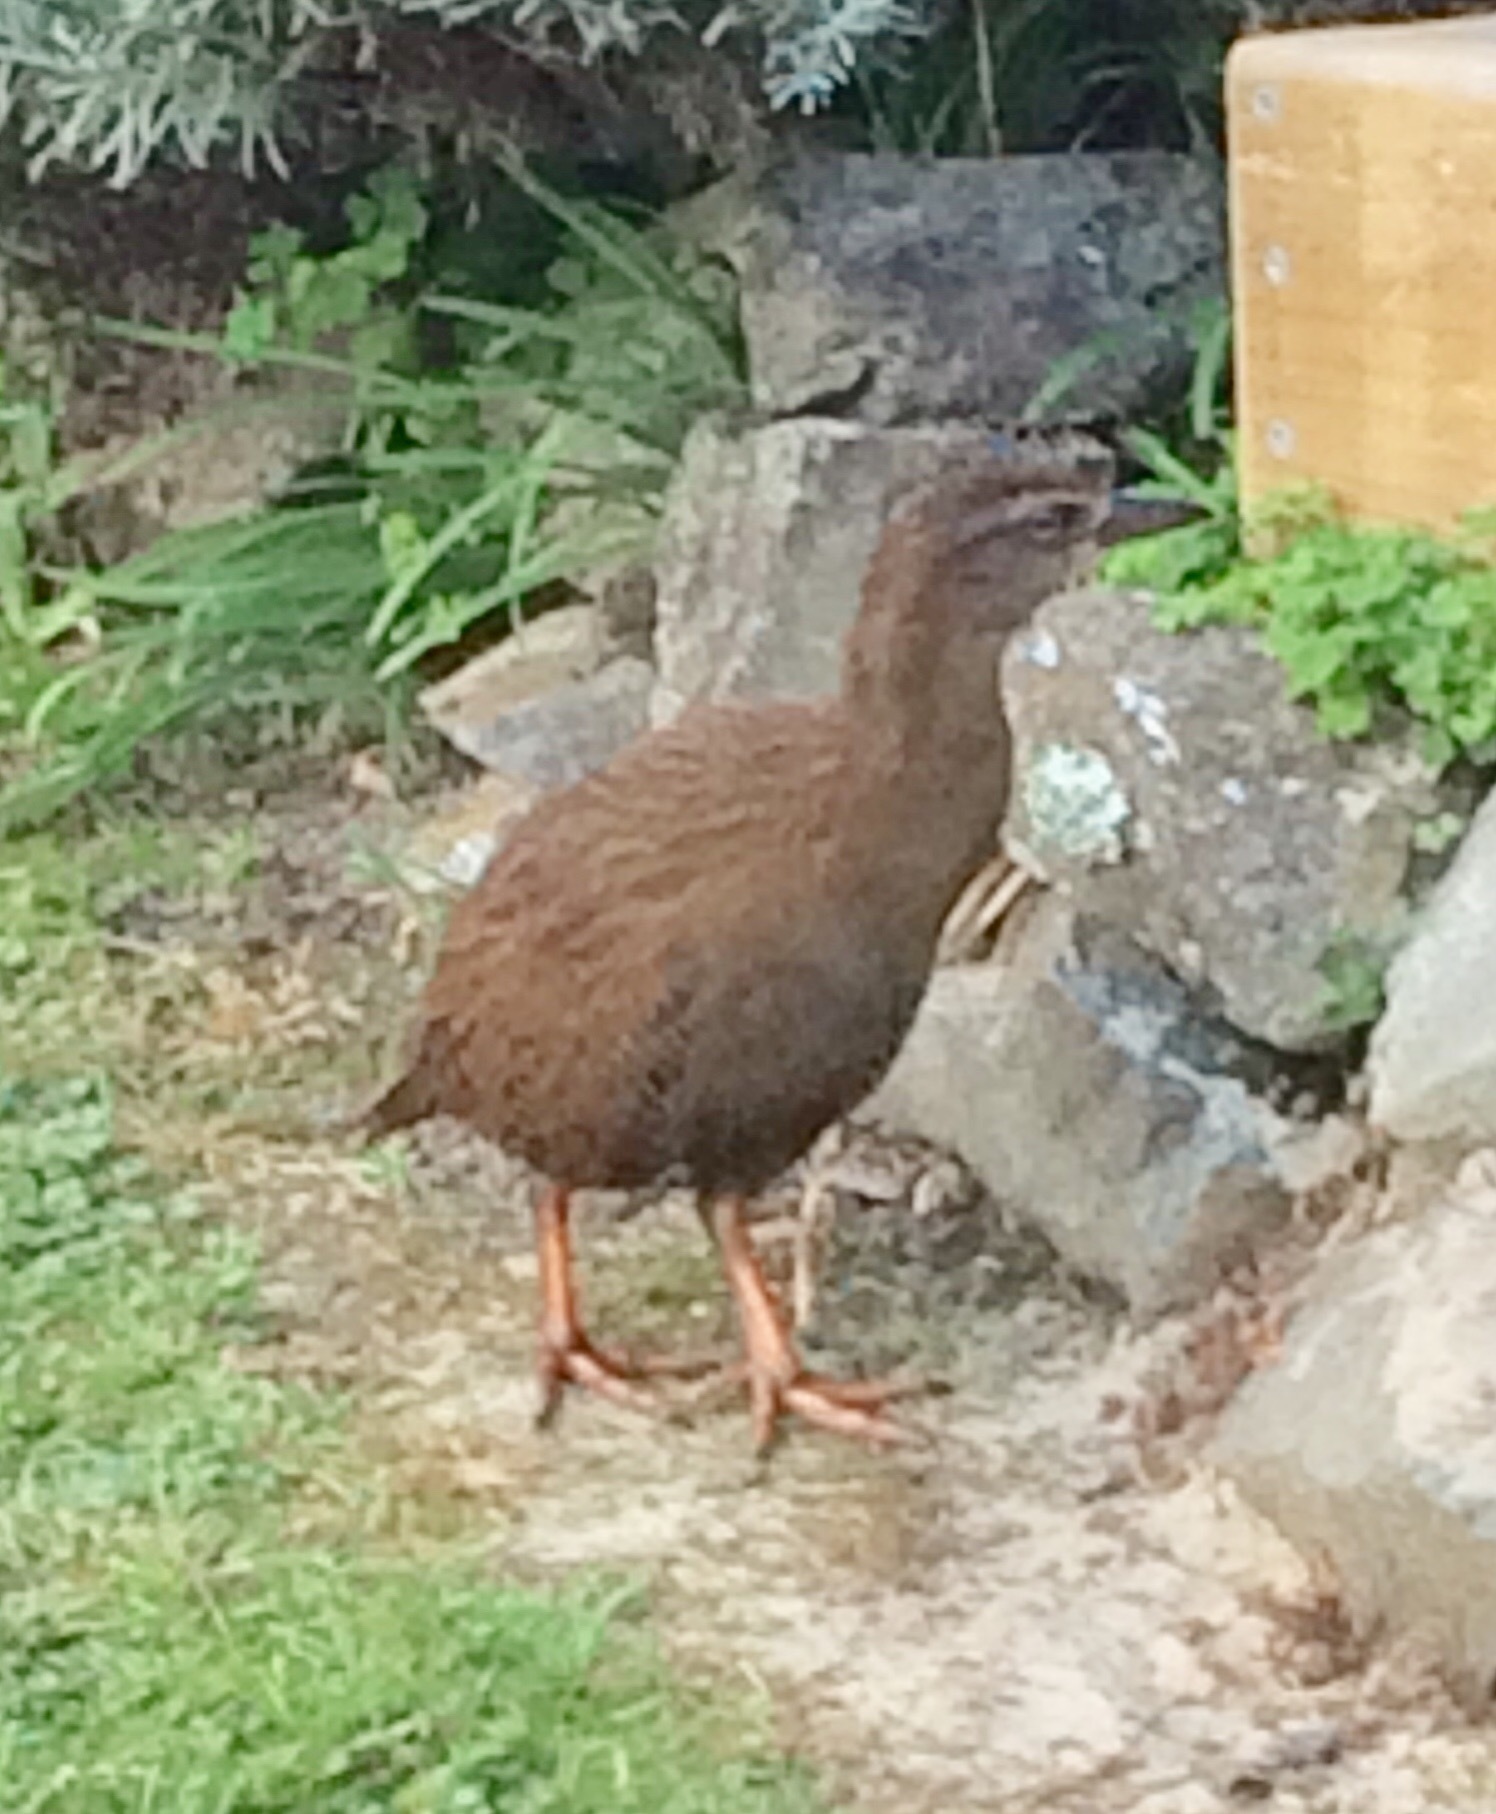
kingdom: Animalia
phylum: Chordata
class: Aves
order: Gruiformes
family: Rallidae
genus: Gallirallus
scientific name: Gallirallus australis
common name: Weka
